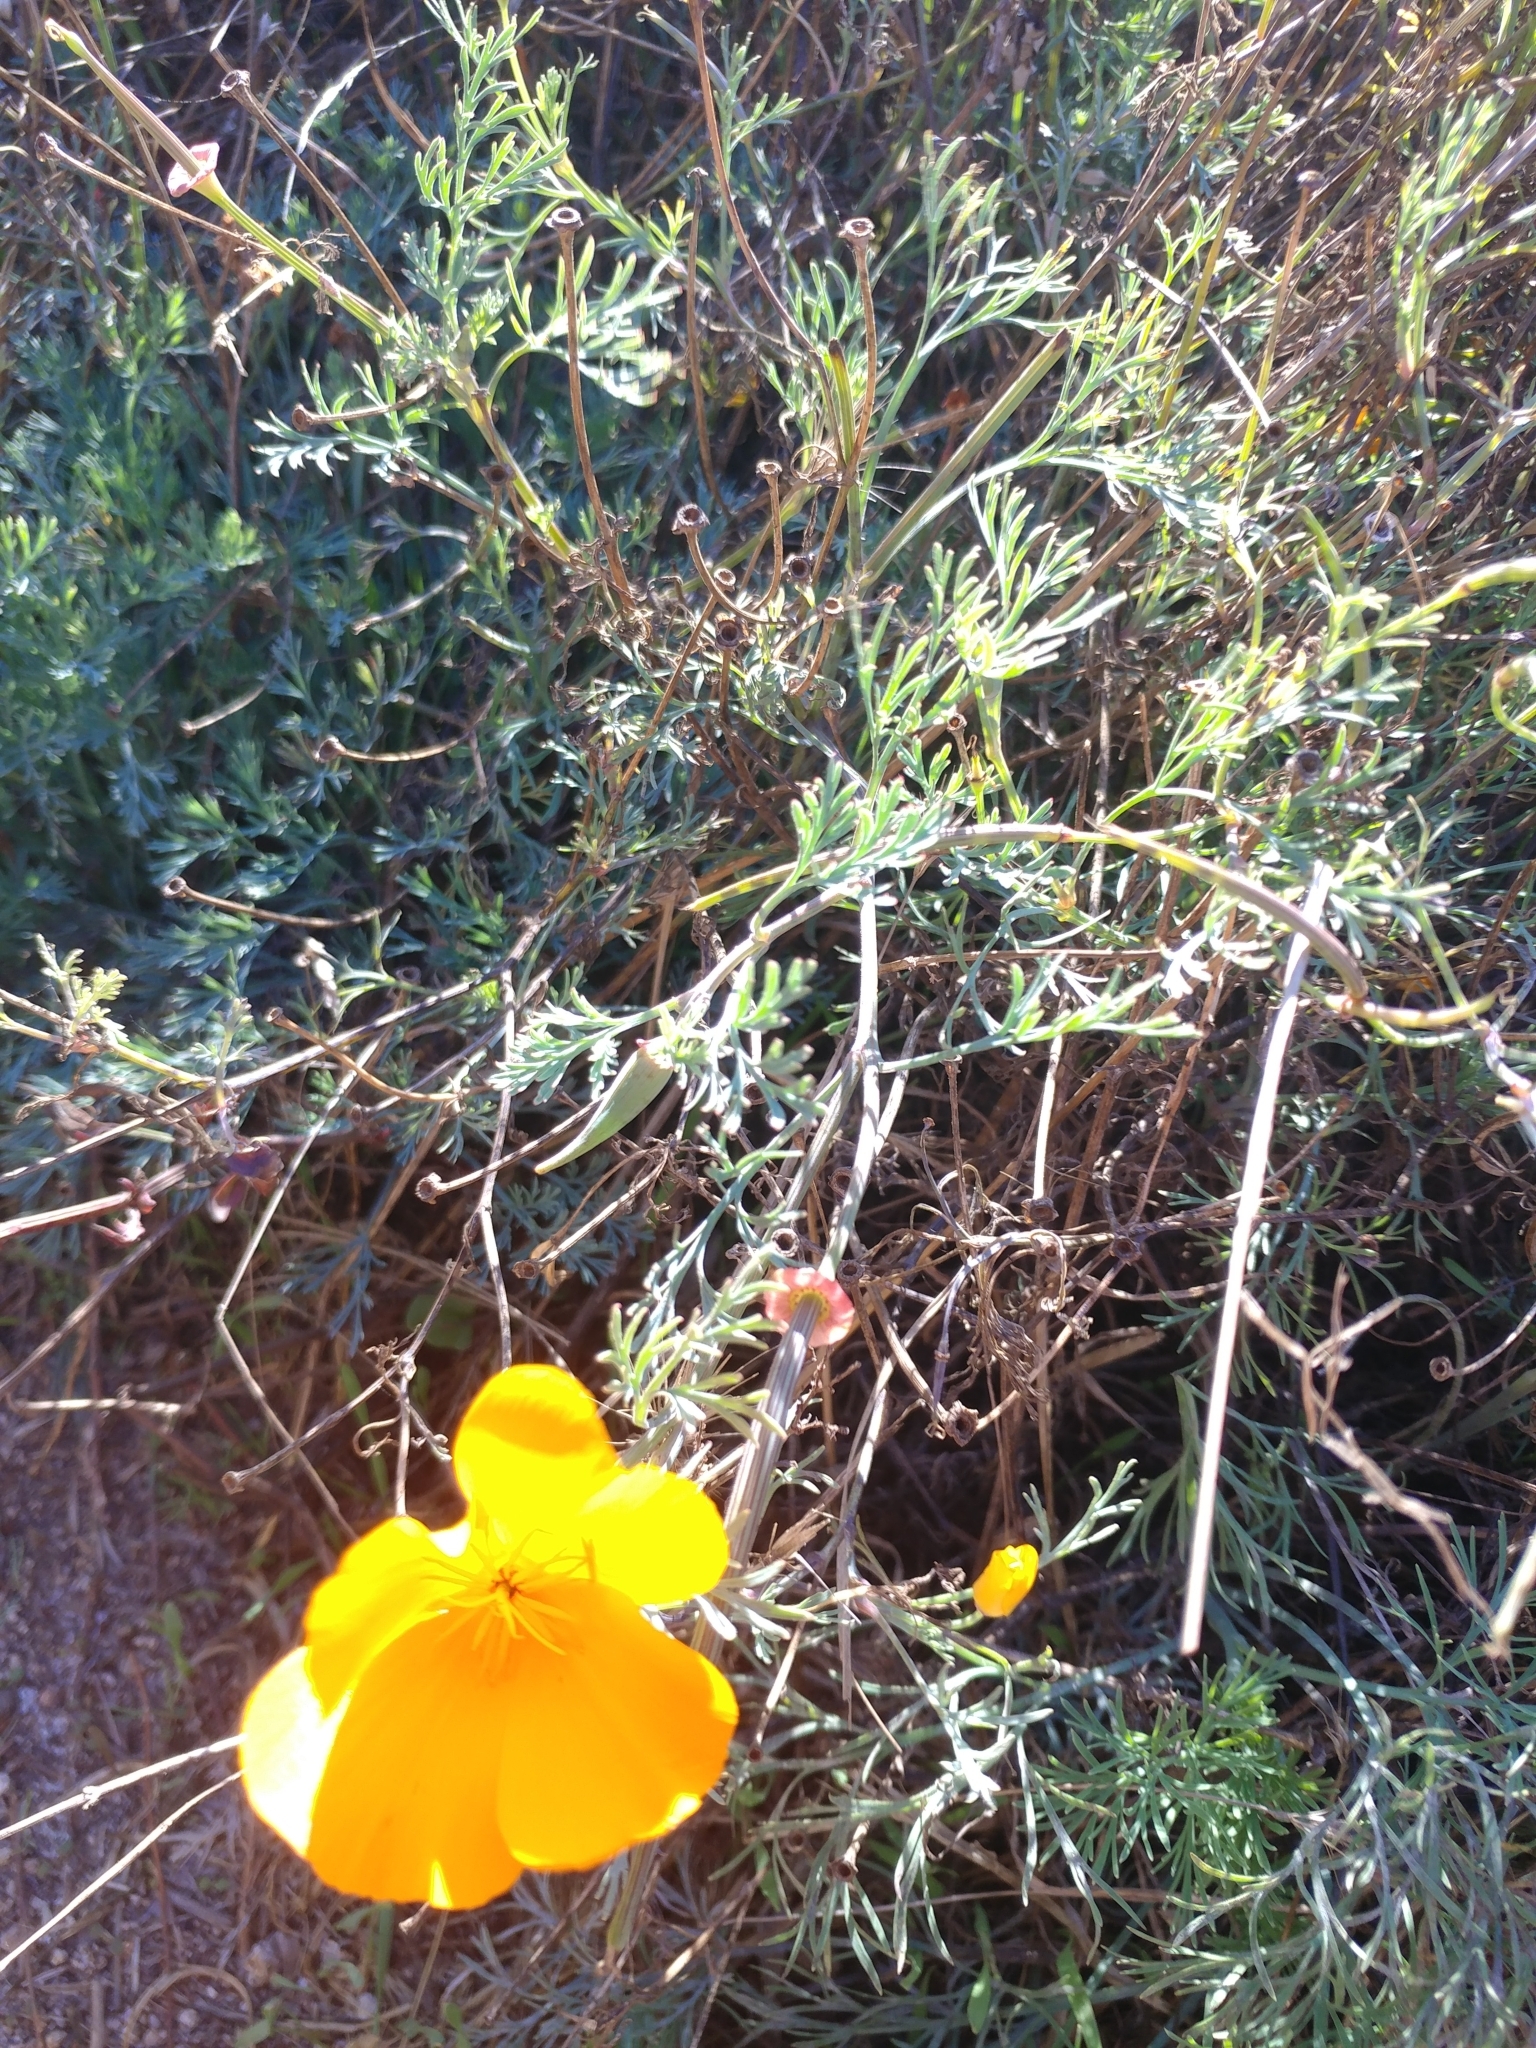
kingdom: Plantae
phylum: Tracheophyta
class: Magnoliopsida
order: Ranunculales
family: Papaveraceae
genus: Eschscholzia
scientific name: Eschscholzia californica
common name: California poppy
